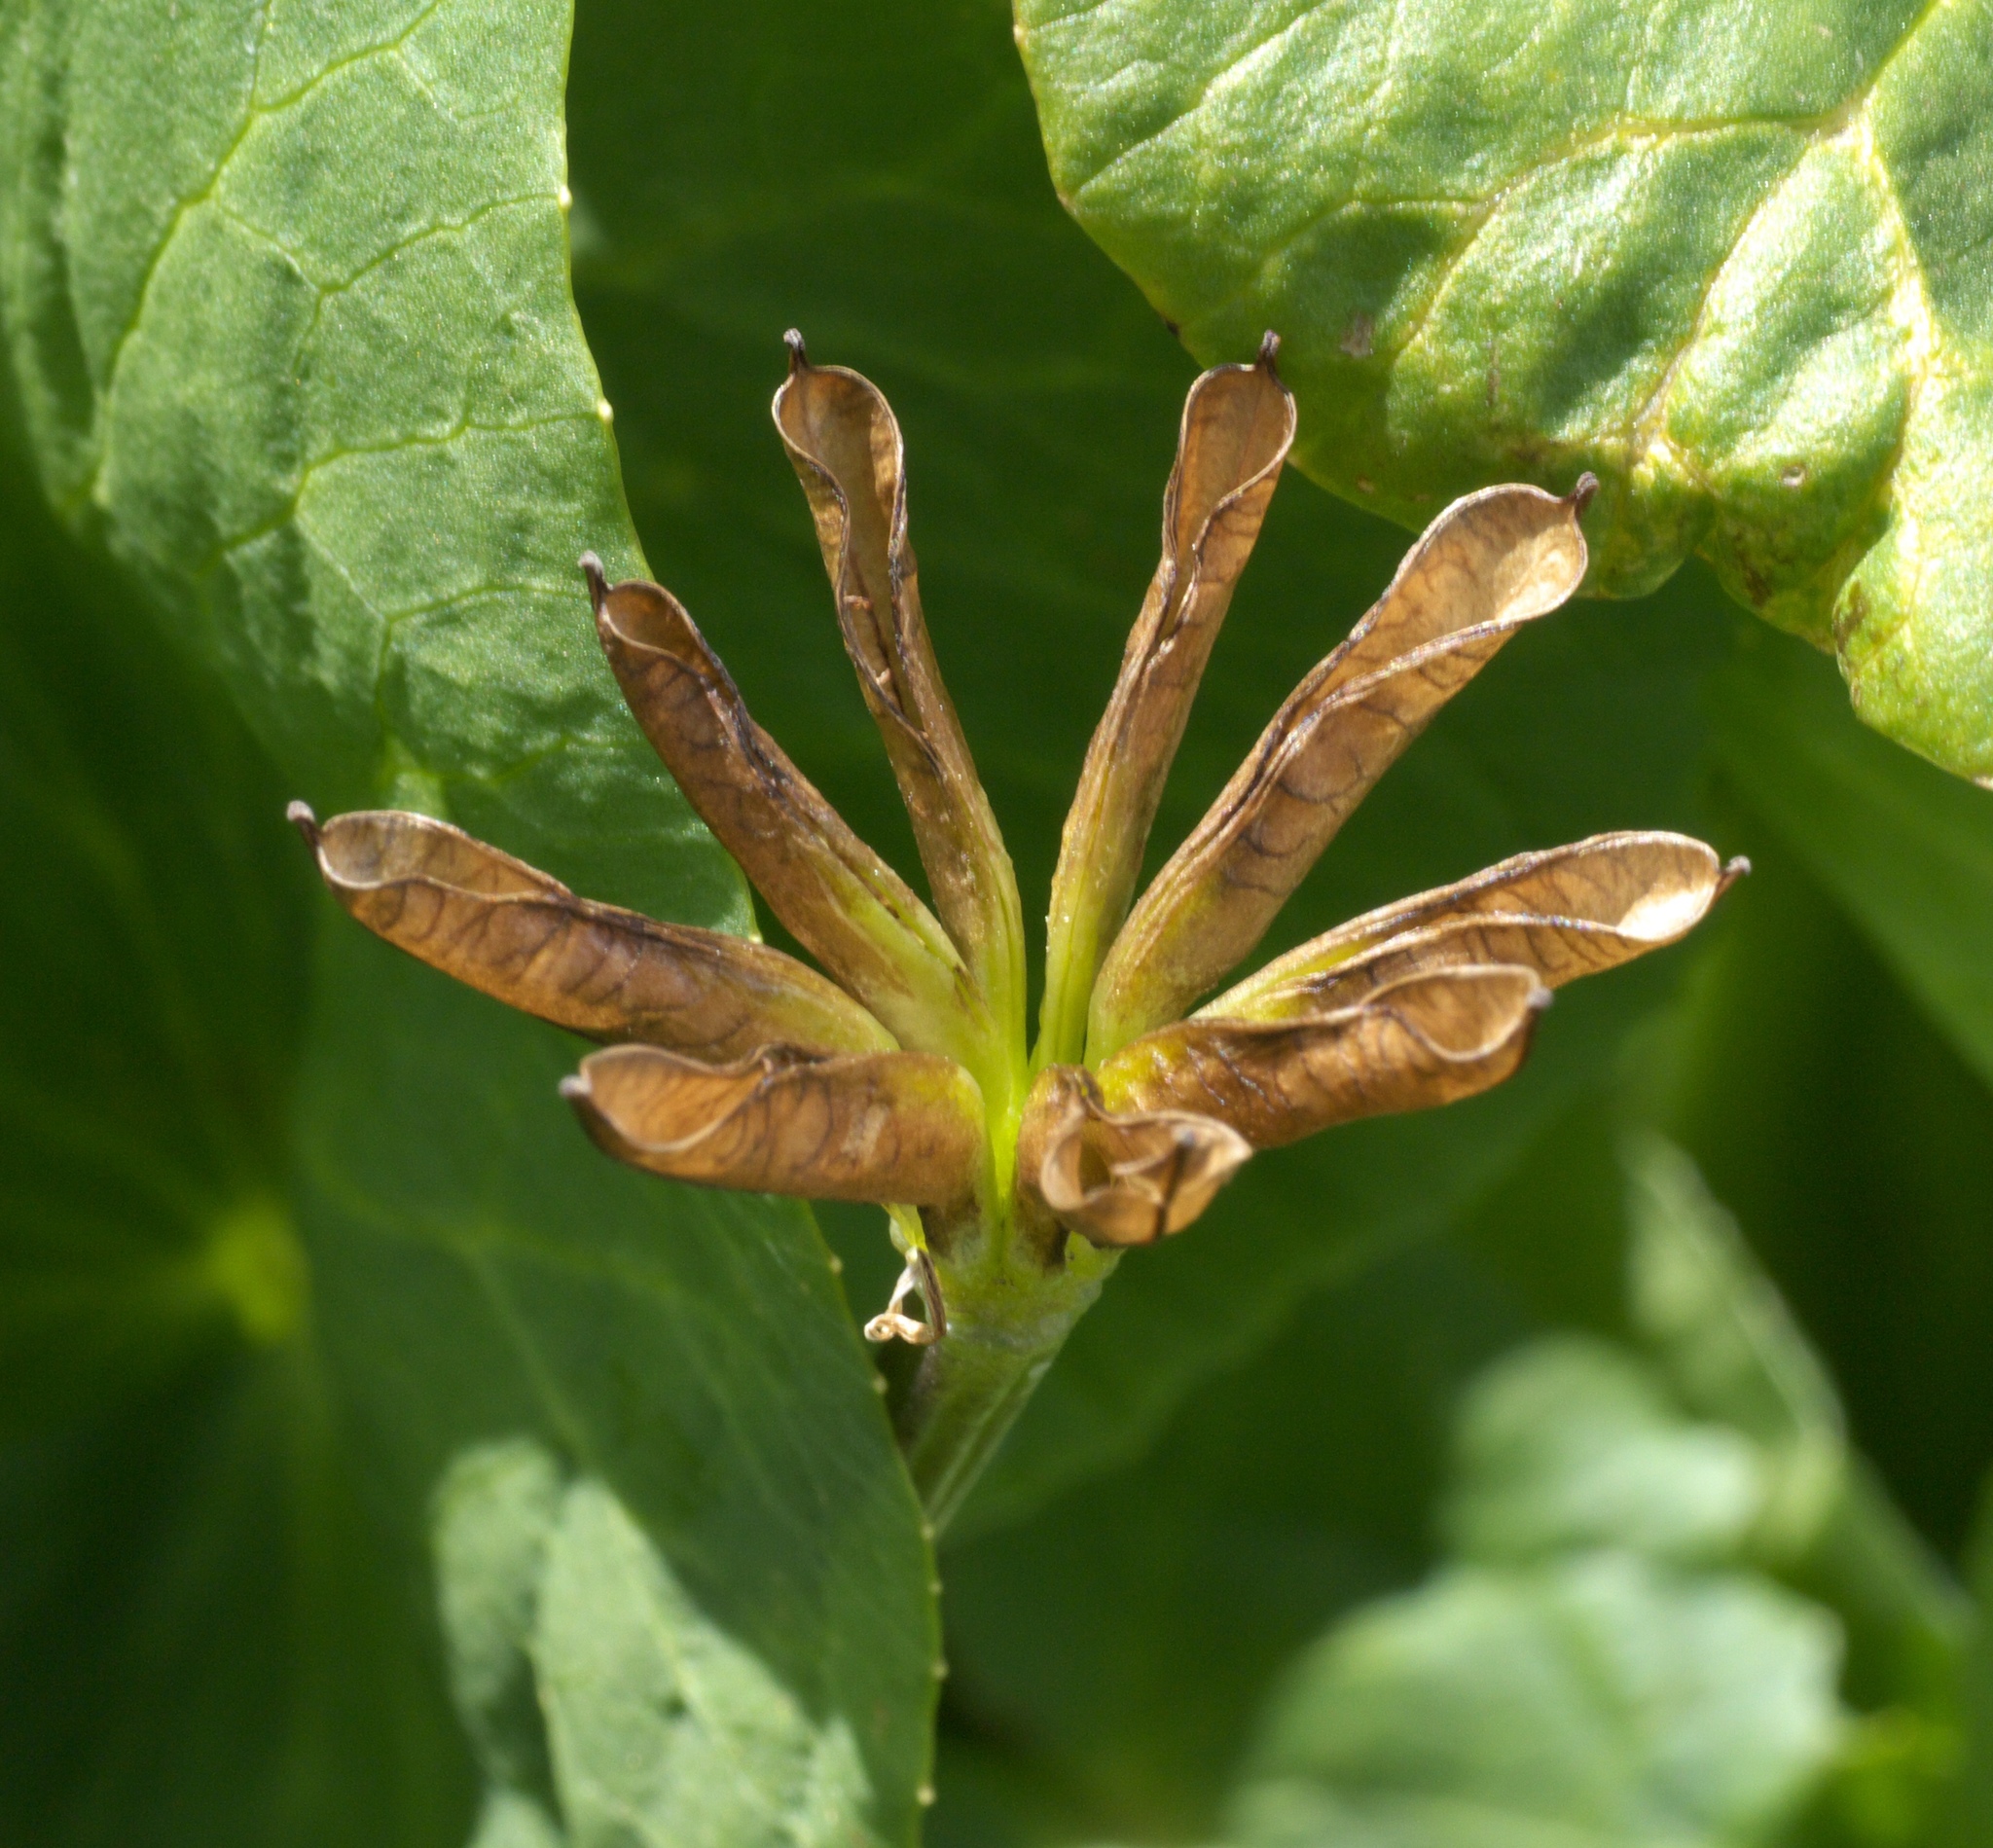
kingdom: Plantae
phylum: Tracheophyta
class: Magnoliopsida
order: Ranunculales
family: Ranunculaceae
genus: Caltha
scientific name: Caltha leptosepala
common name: Elkslip
